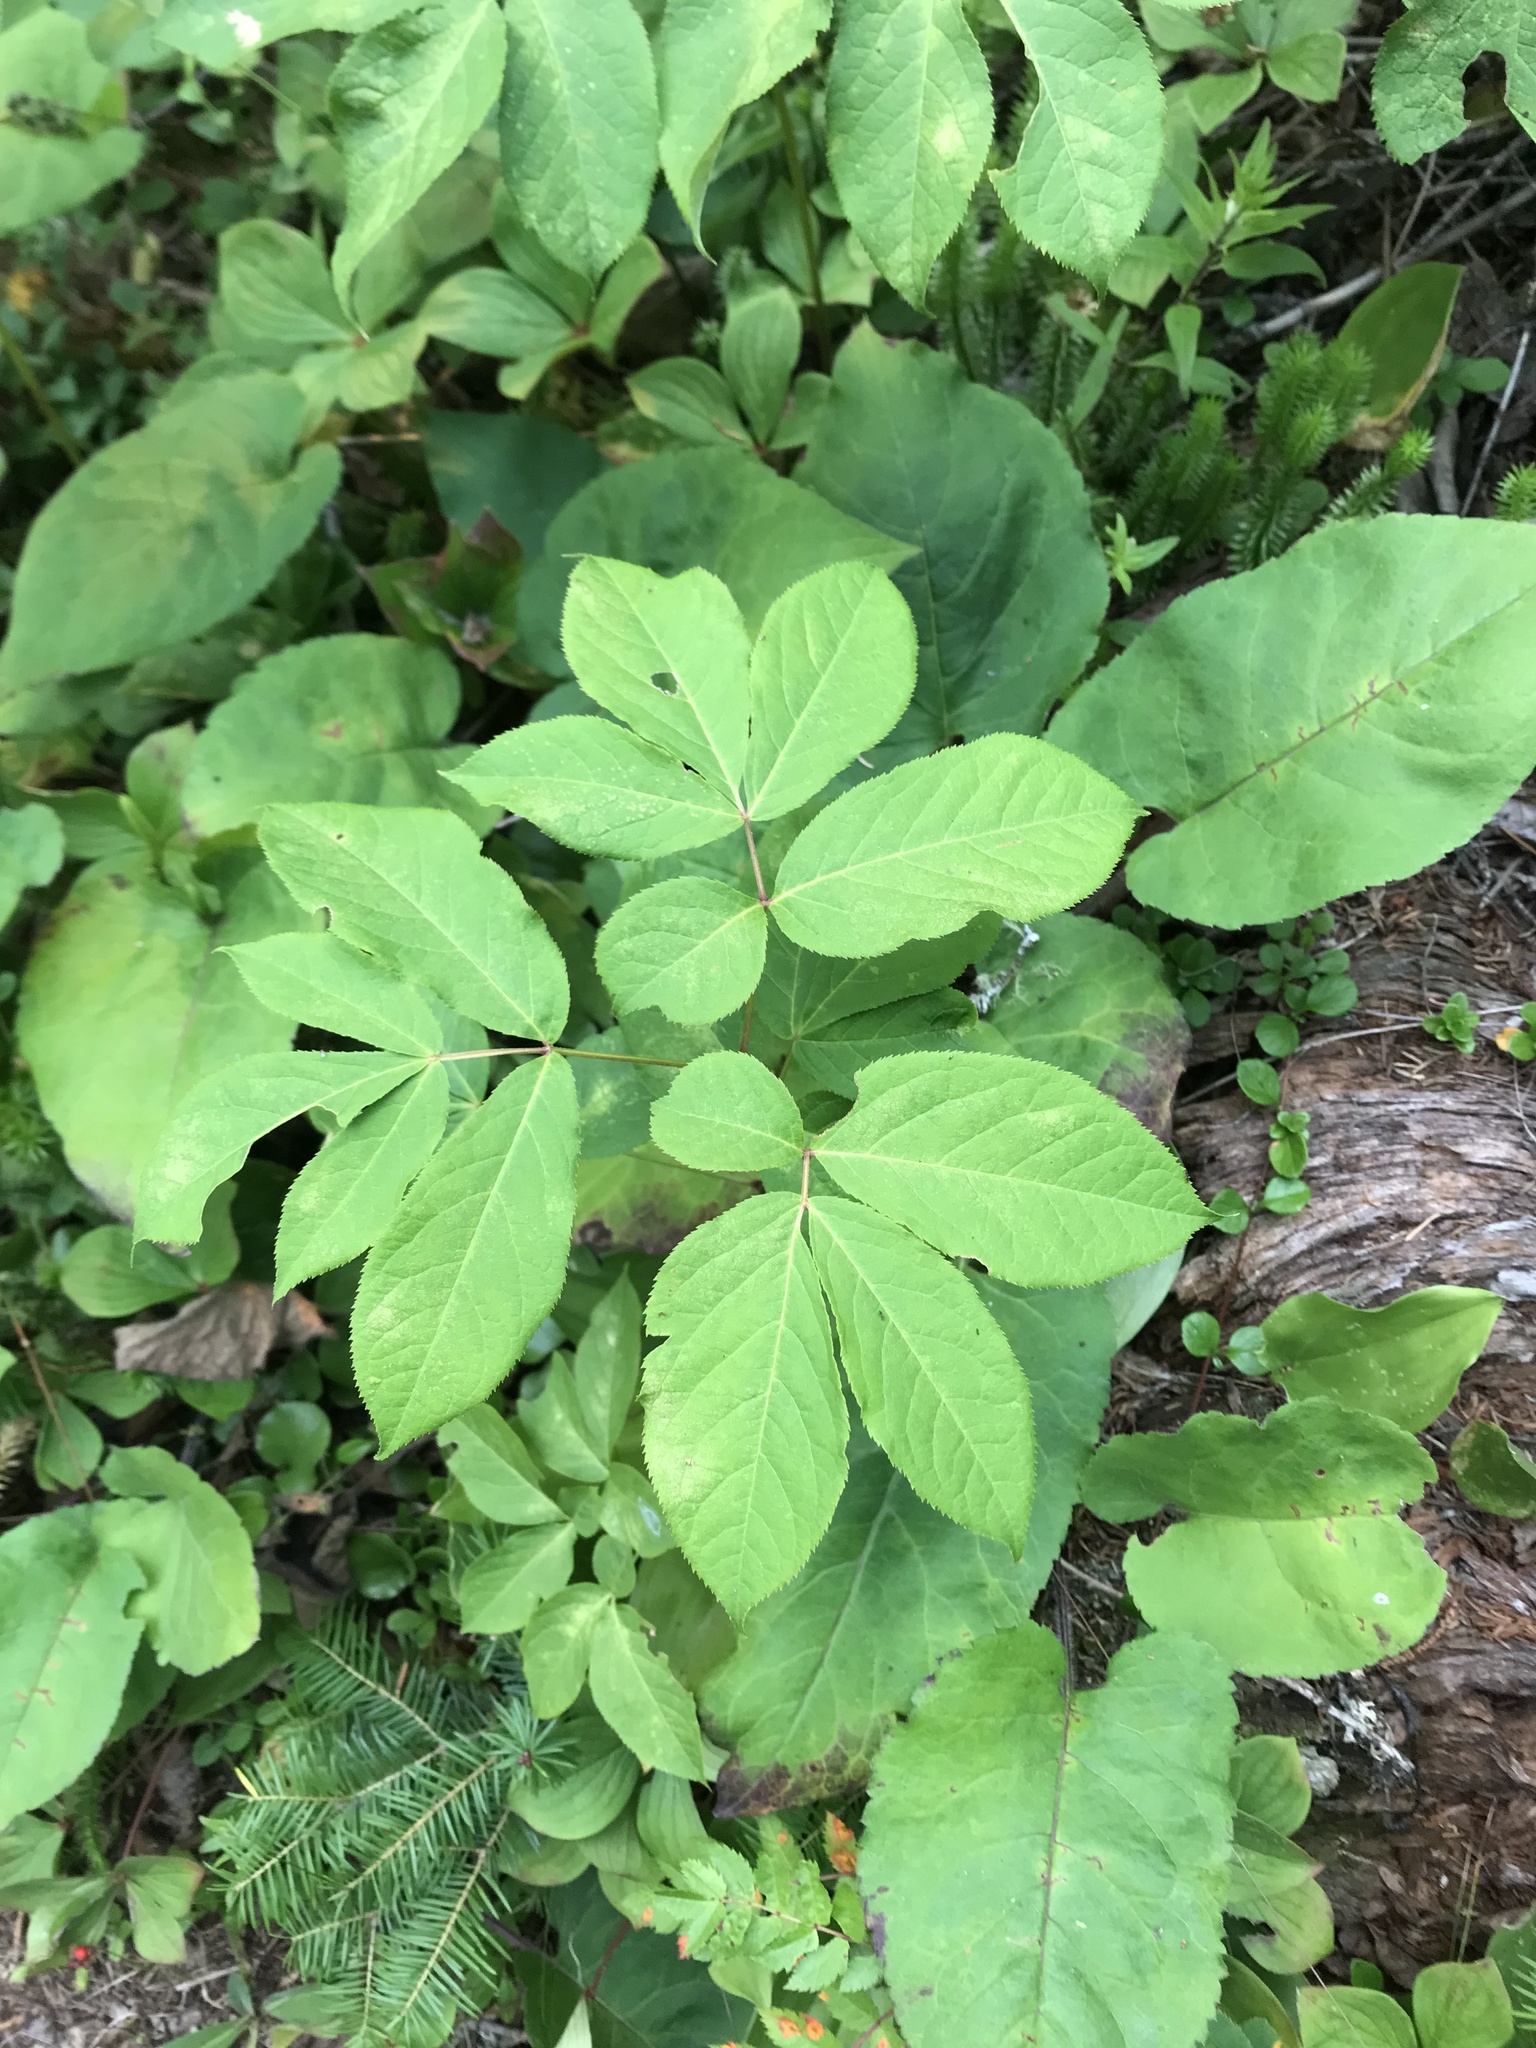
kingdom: Plantae
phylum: Tracheophyta
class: Magnoliopsida
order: Apiales
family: Araliaceae
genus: Aralia
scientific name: Aralia nudicaulis
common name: Wild sarsaparilla
